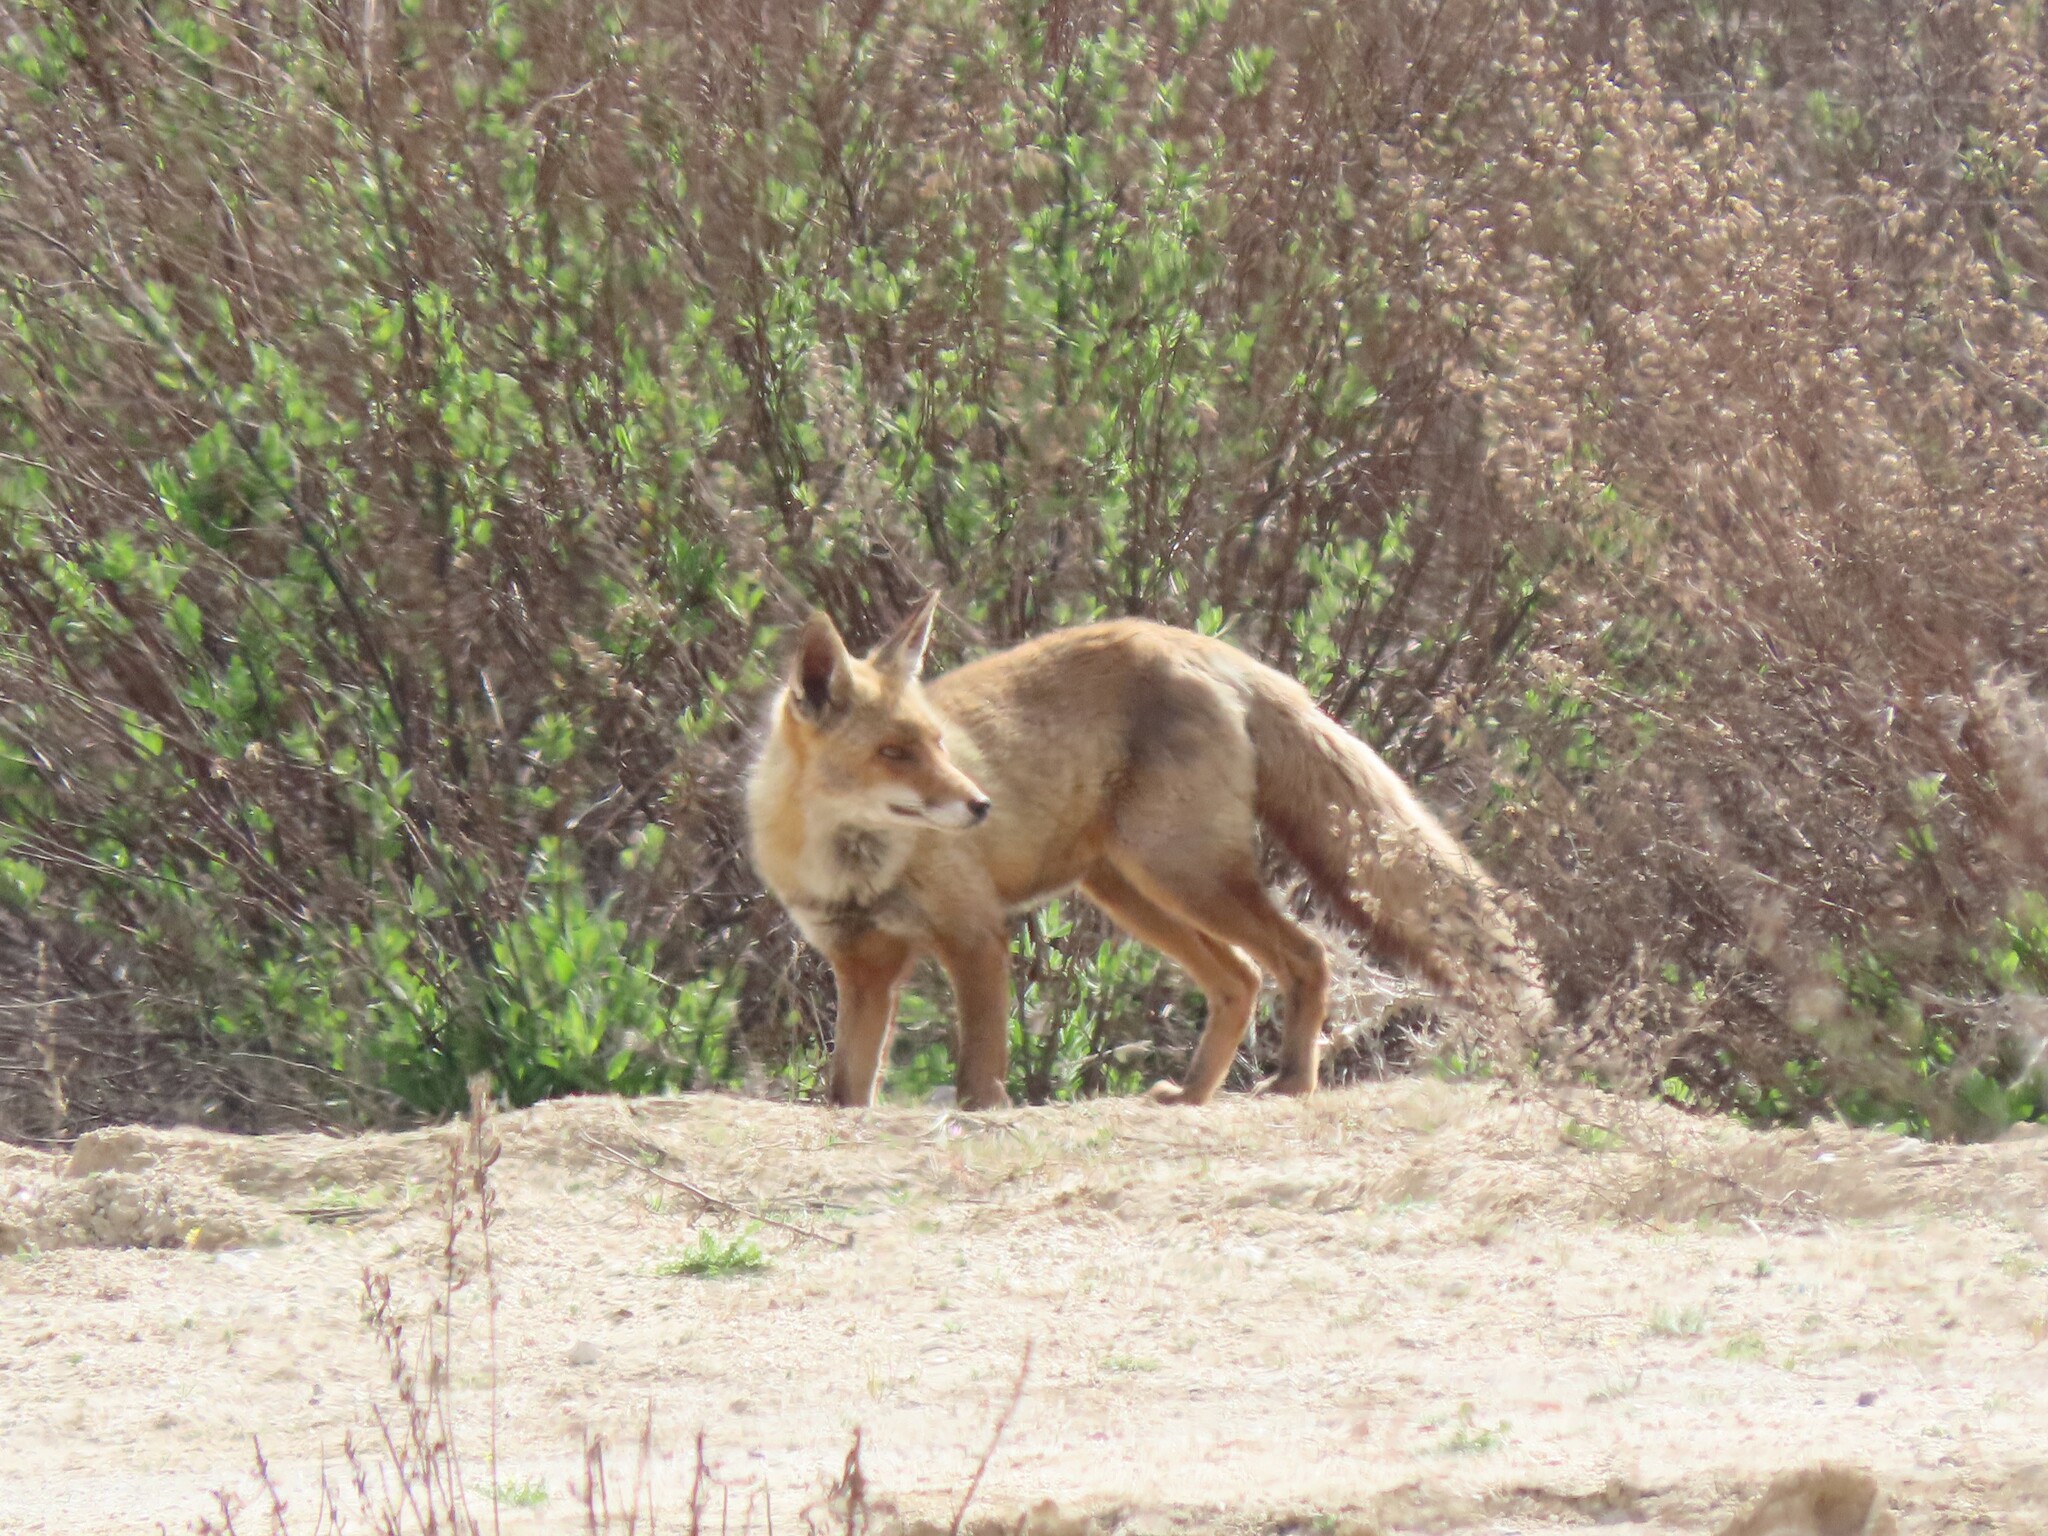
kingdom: Animalia
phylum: Chordata
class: Mammalia
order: Carnivora
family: Canidae
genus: Vulpes
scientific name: Vulpes vulpes
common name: Red fox
